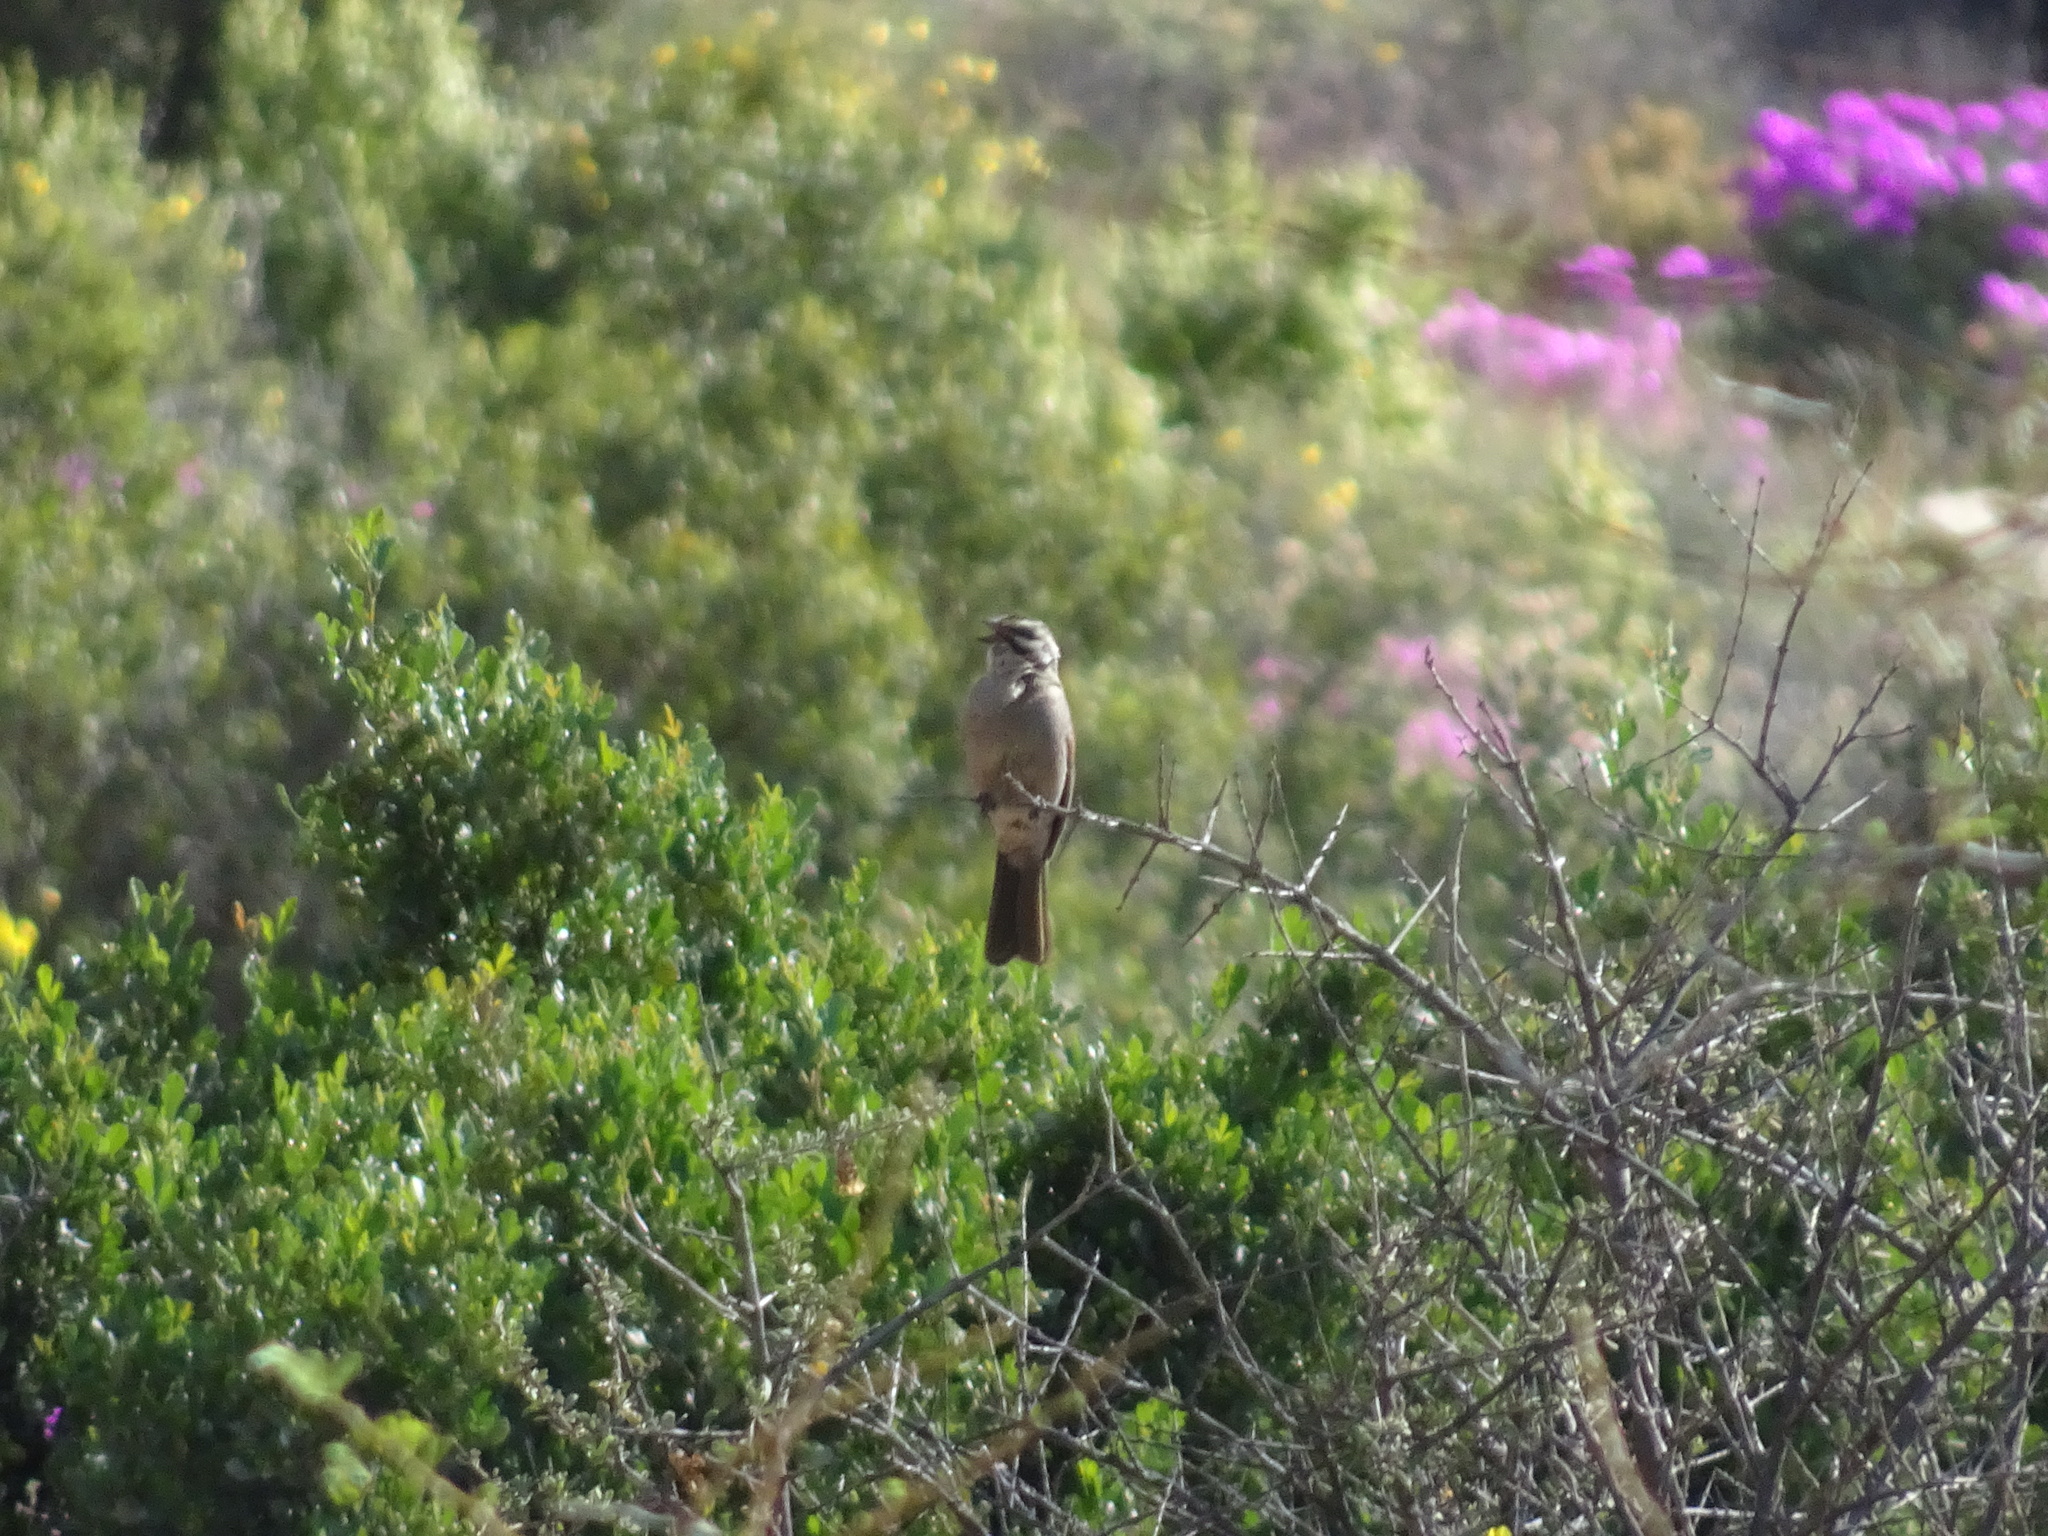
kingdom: Animalia
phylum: Chordata
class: Aves
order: Passeriformes
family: Emberizidae
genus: Emberiza
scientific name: Emberiza capensis
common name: Cape bunting
